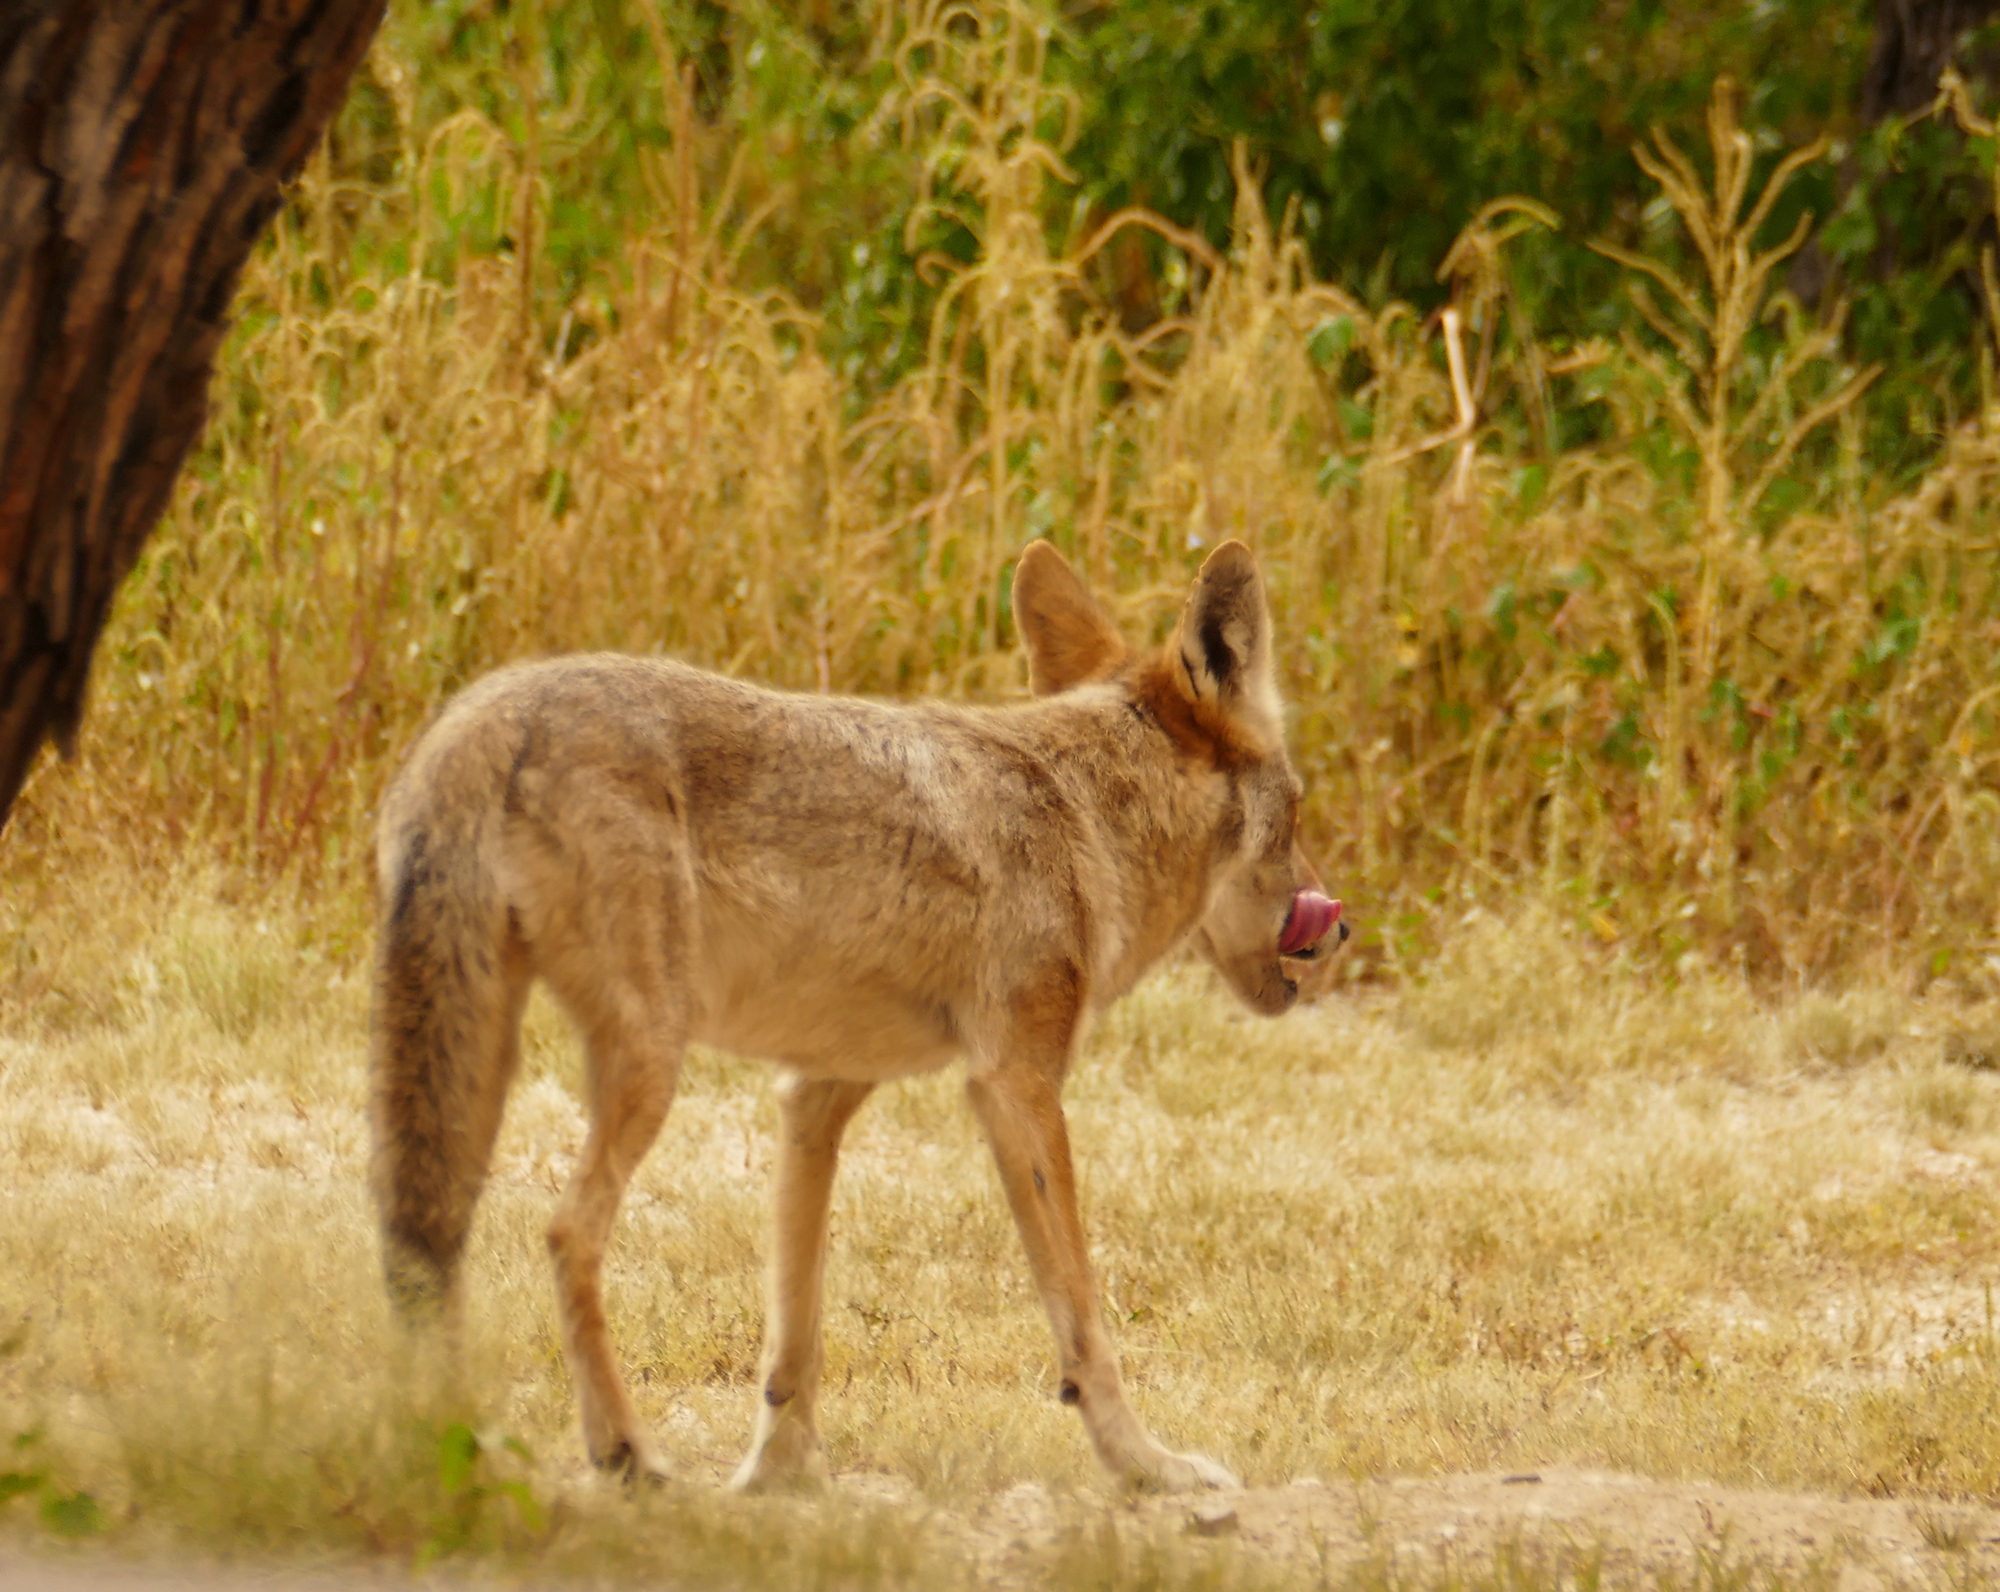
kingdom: Animalia
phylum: Chordata
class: Mammalia
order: Carnivora
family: Canidae
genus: Canis
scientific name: Canis latrans
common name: Coyote
